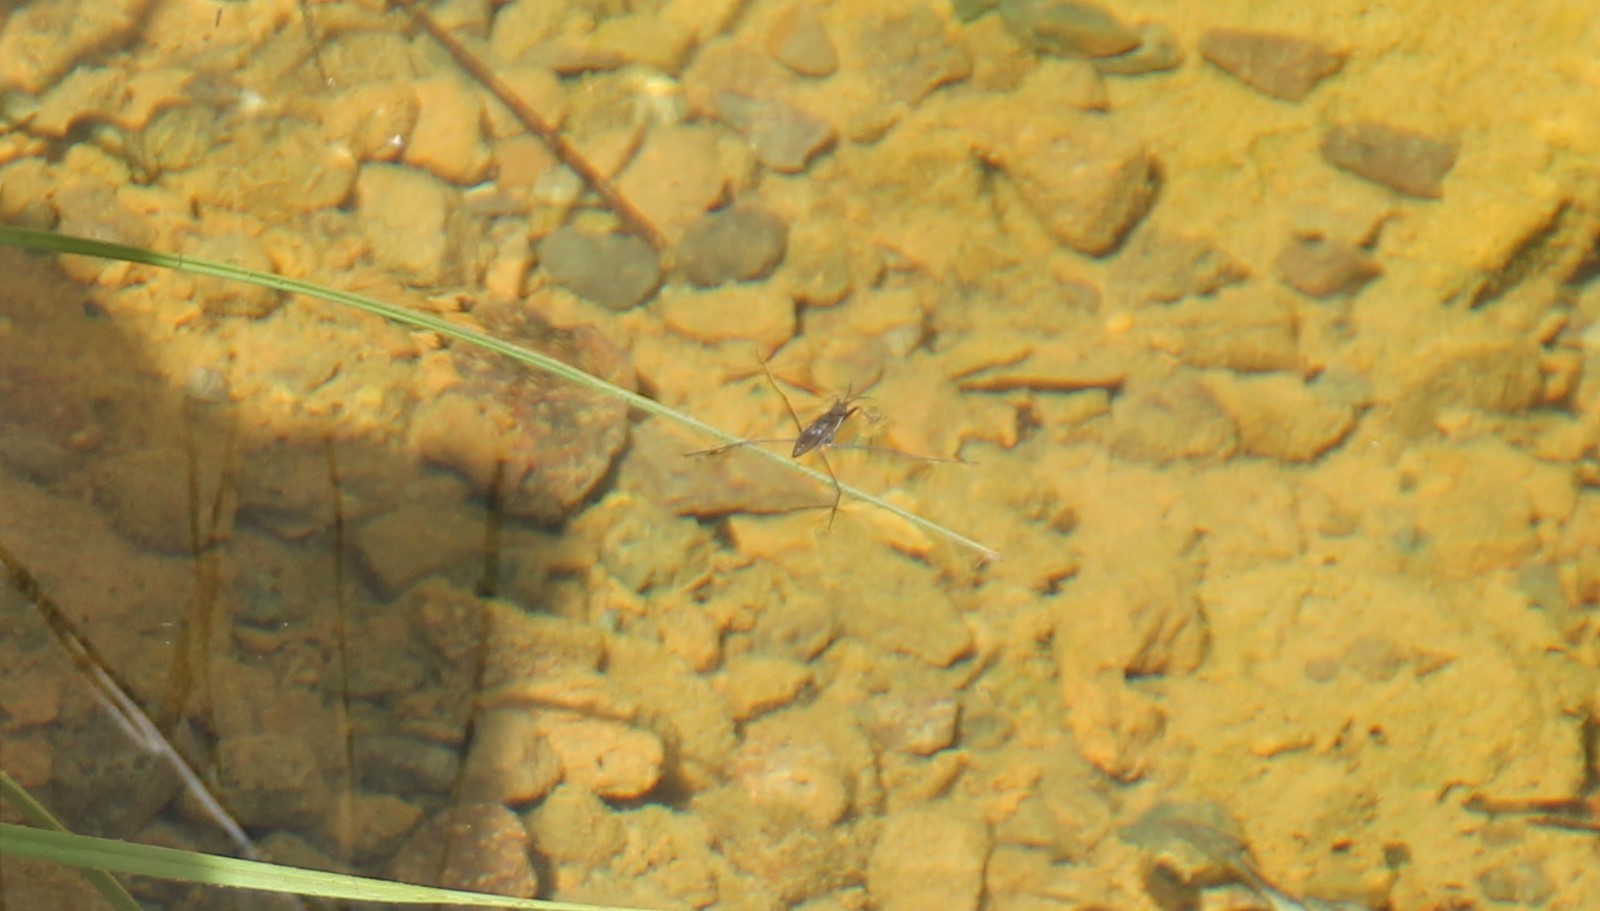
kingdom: Animalia
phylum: Arthropoda
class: Insecta
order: Hemiptera
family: Gerridae
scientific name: Gerridae
